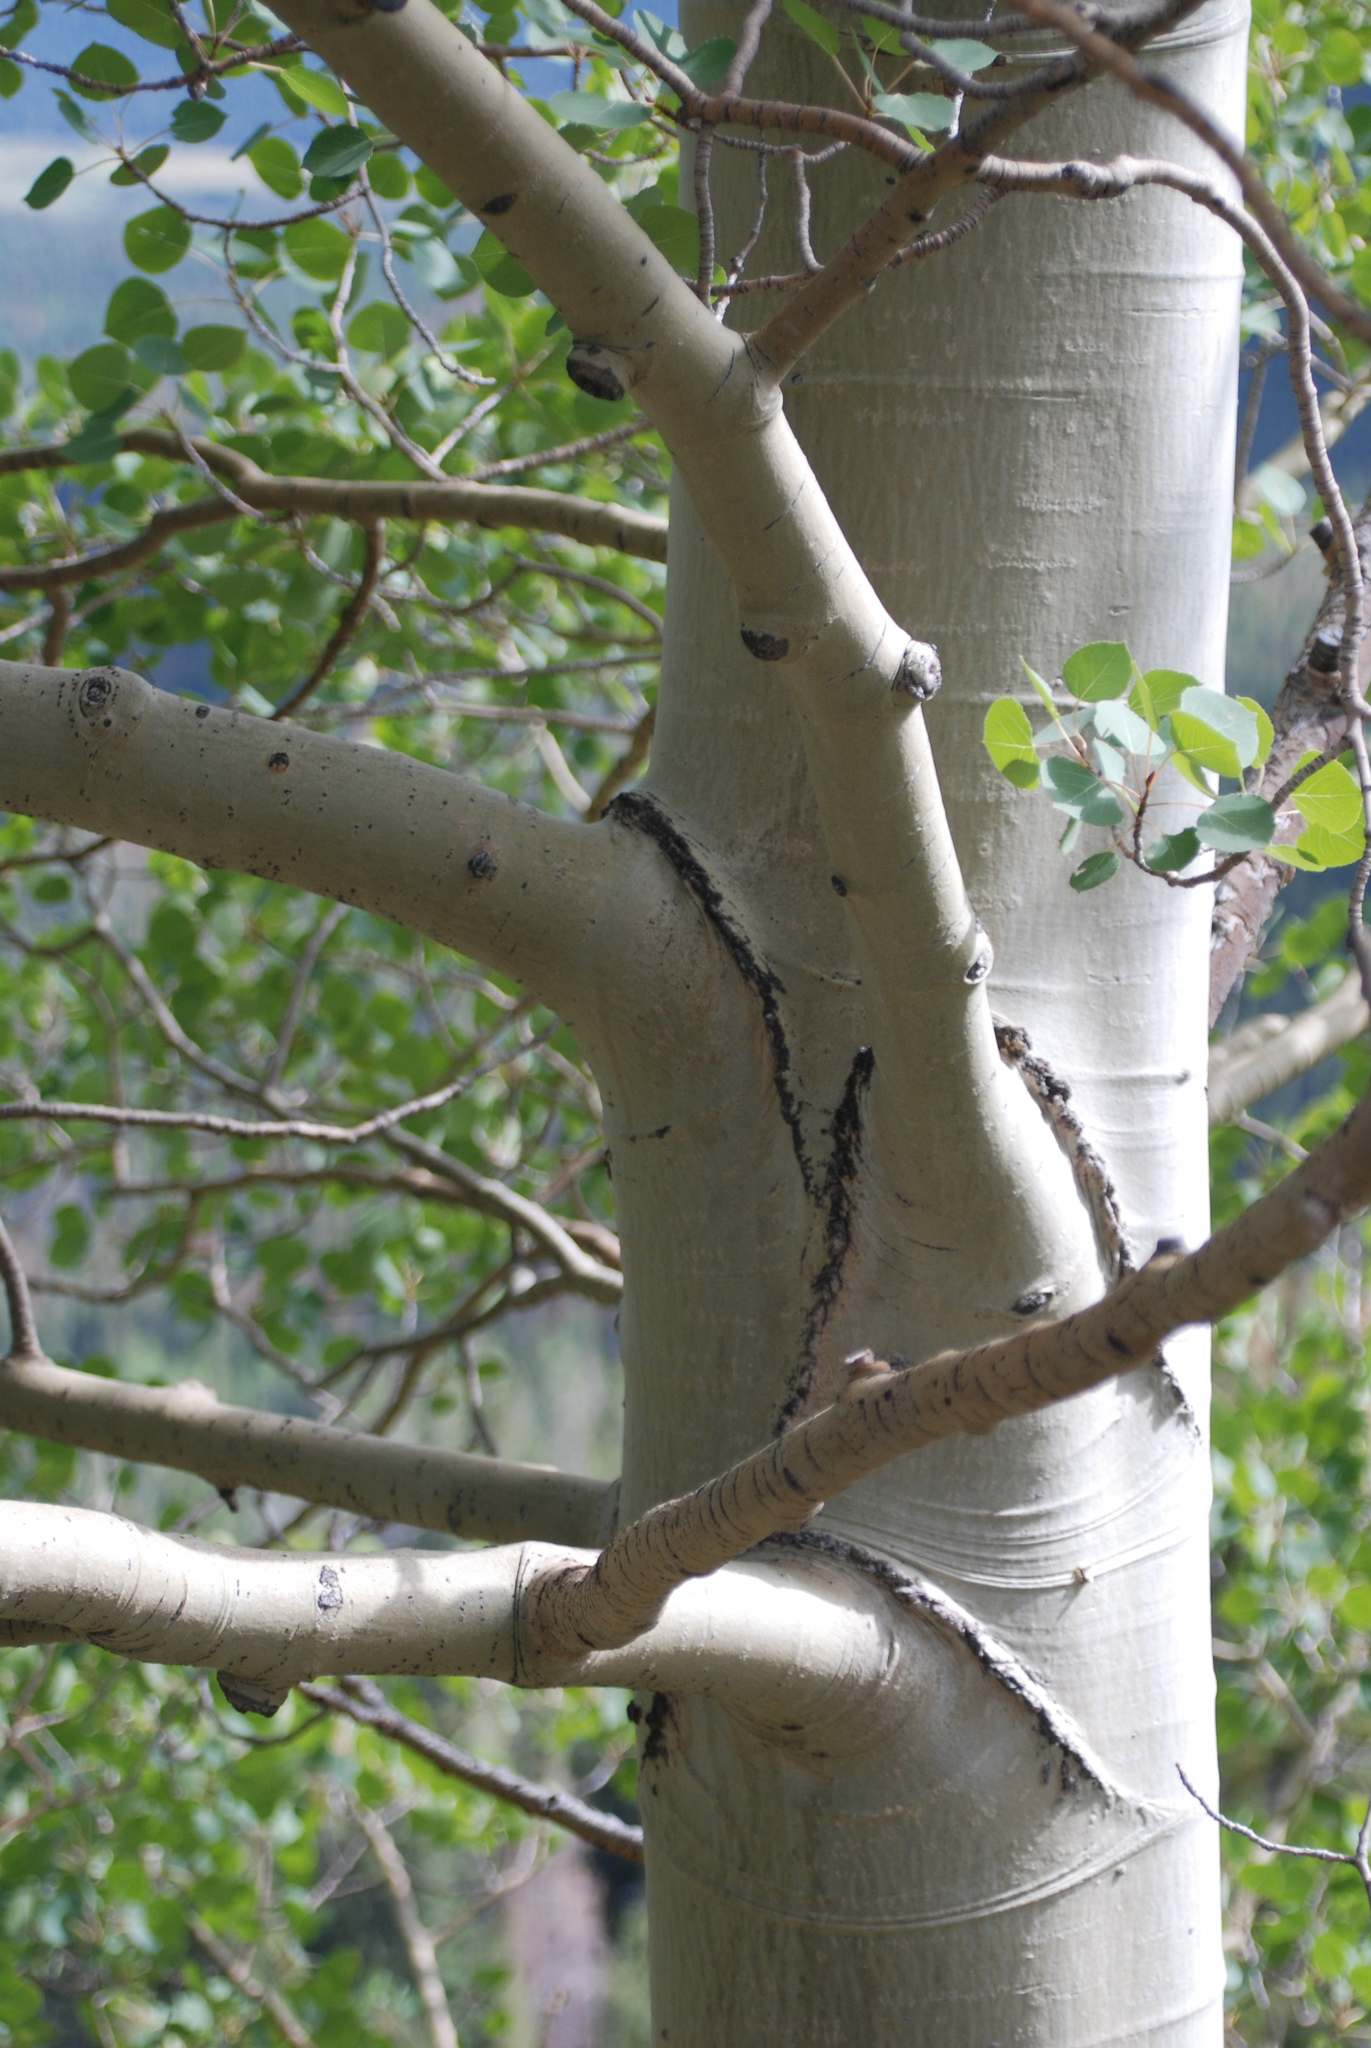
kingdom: Plantae
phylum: Tracheophyta
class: Magnoliopsida
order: Malpighiales
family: Salicaceae
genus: Populus
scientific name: Populus tremuloides
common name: Quaking aspen
